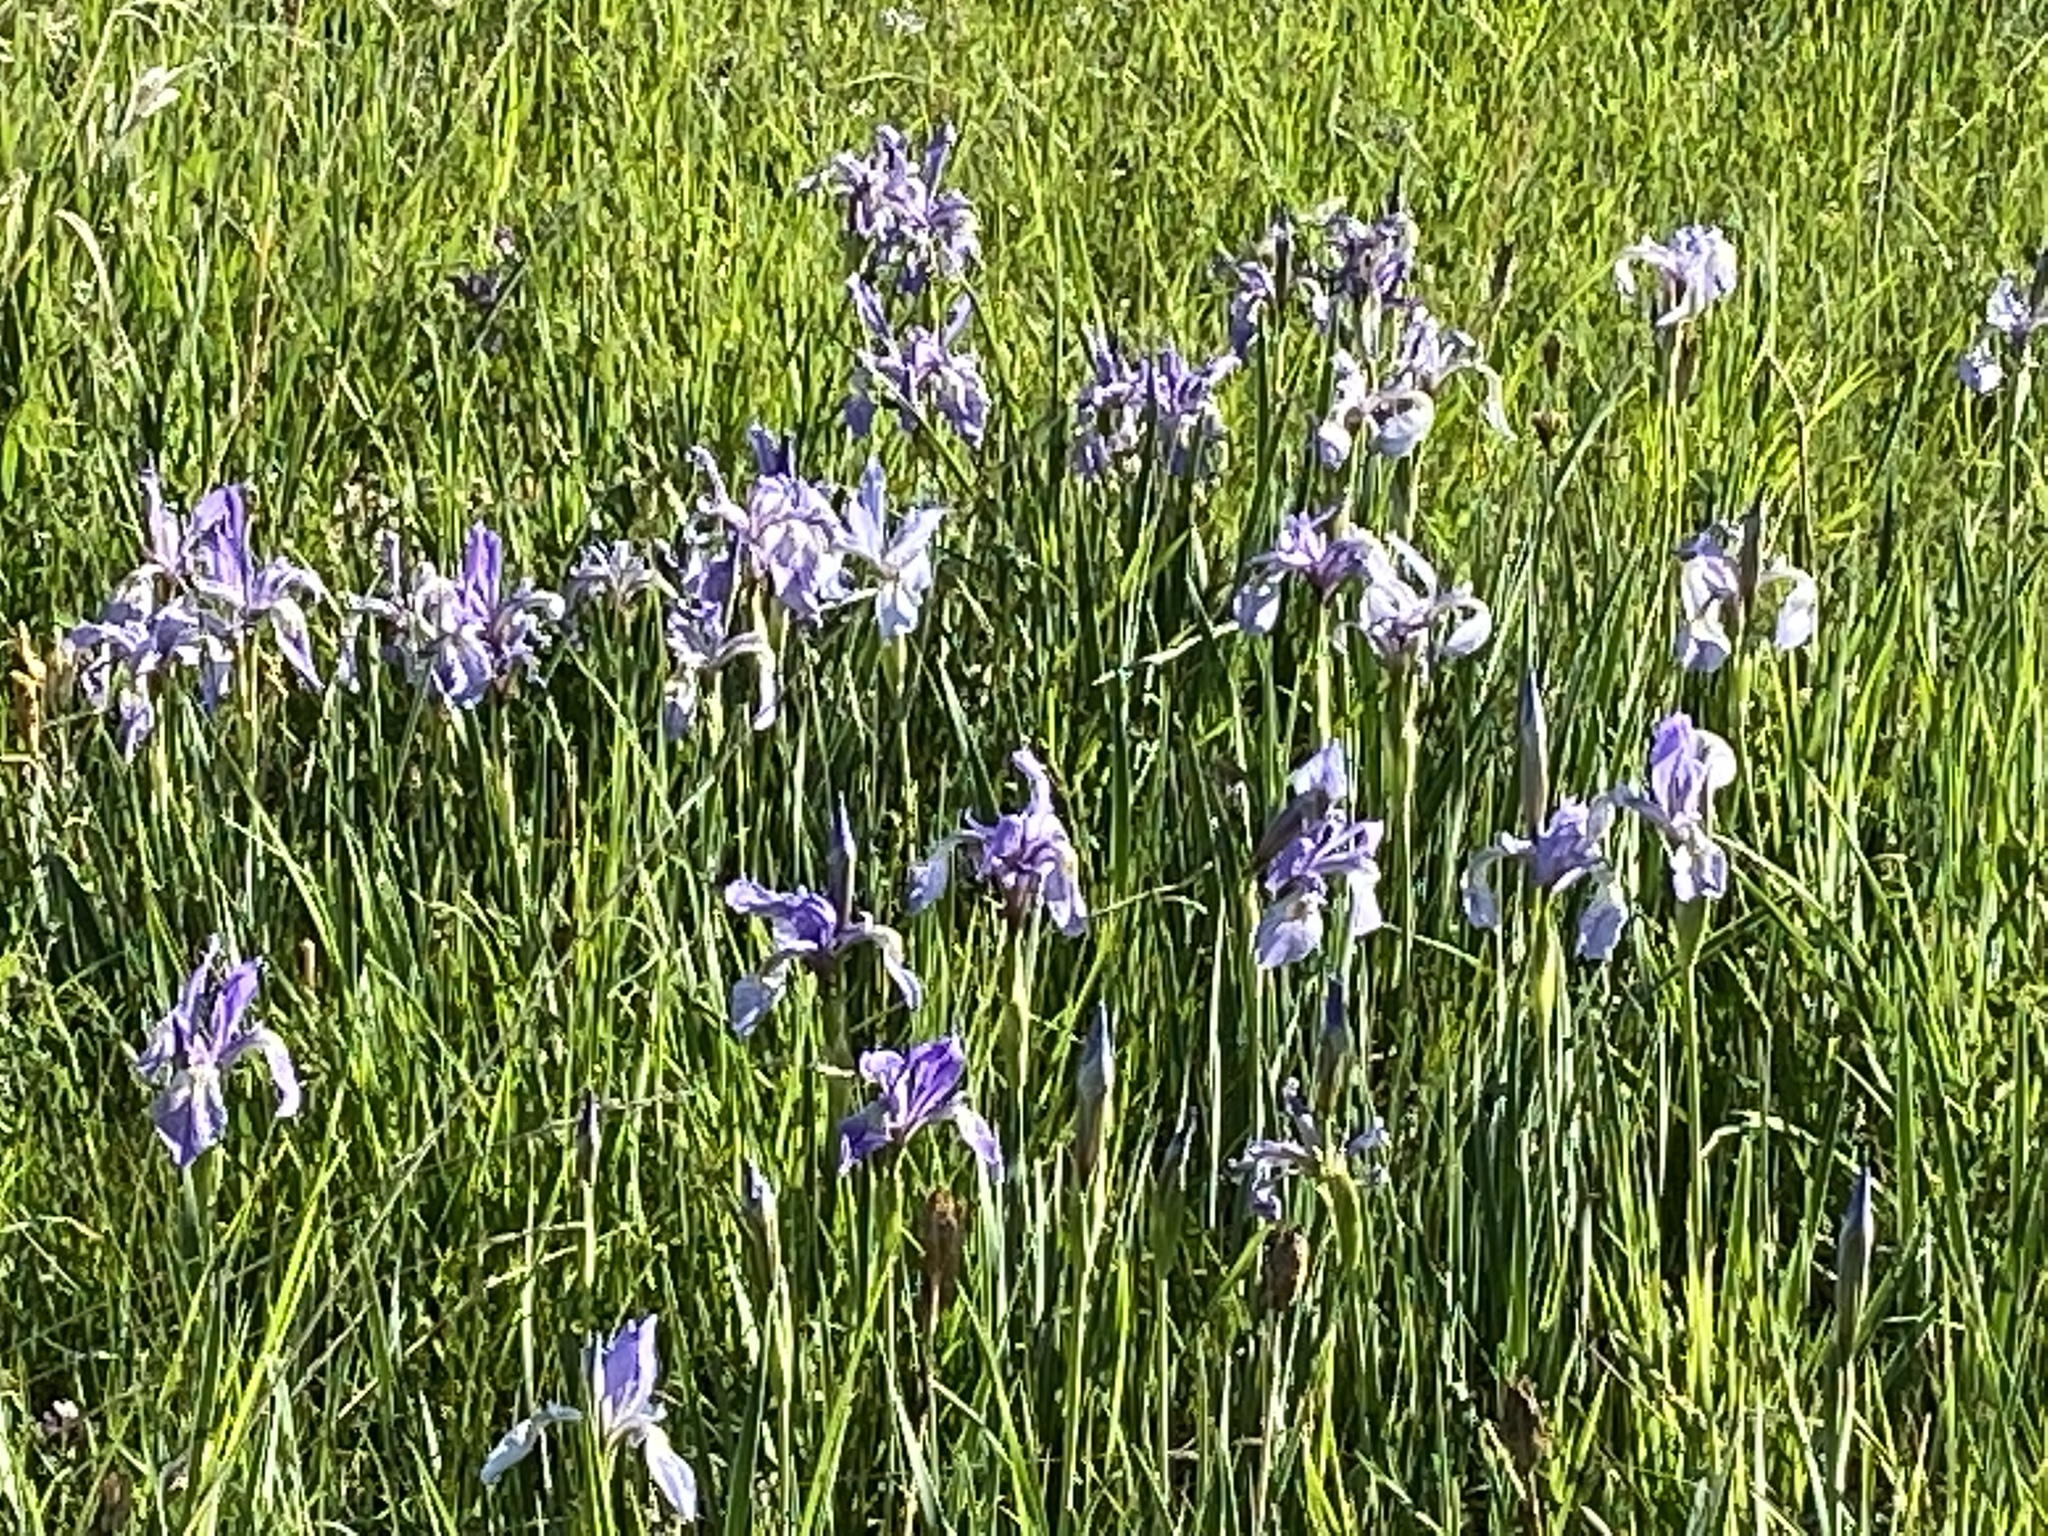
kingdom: Plantae
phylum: Tracheophyta
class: Liliopsida
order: Asparagales
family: Iridaceae
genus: Iris
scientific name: Iris missouriensis
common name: Rocky mountain iris
